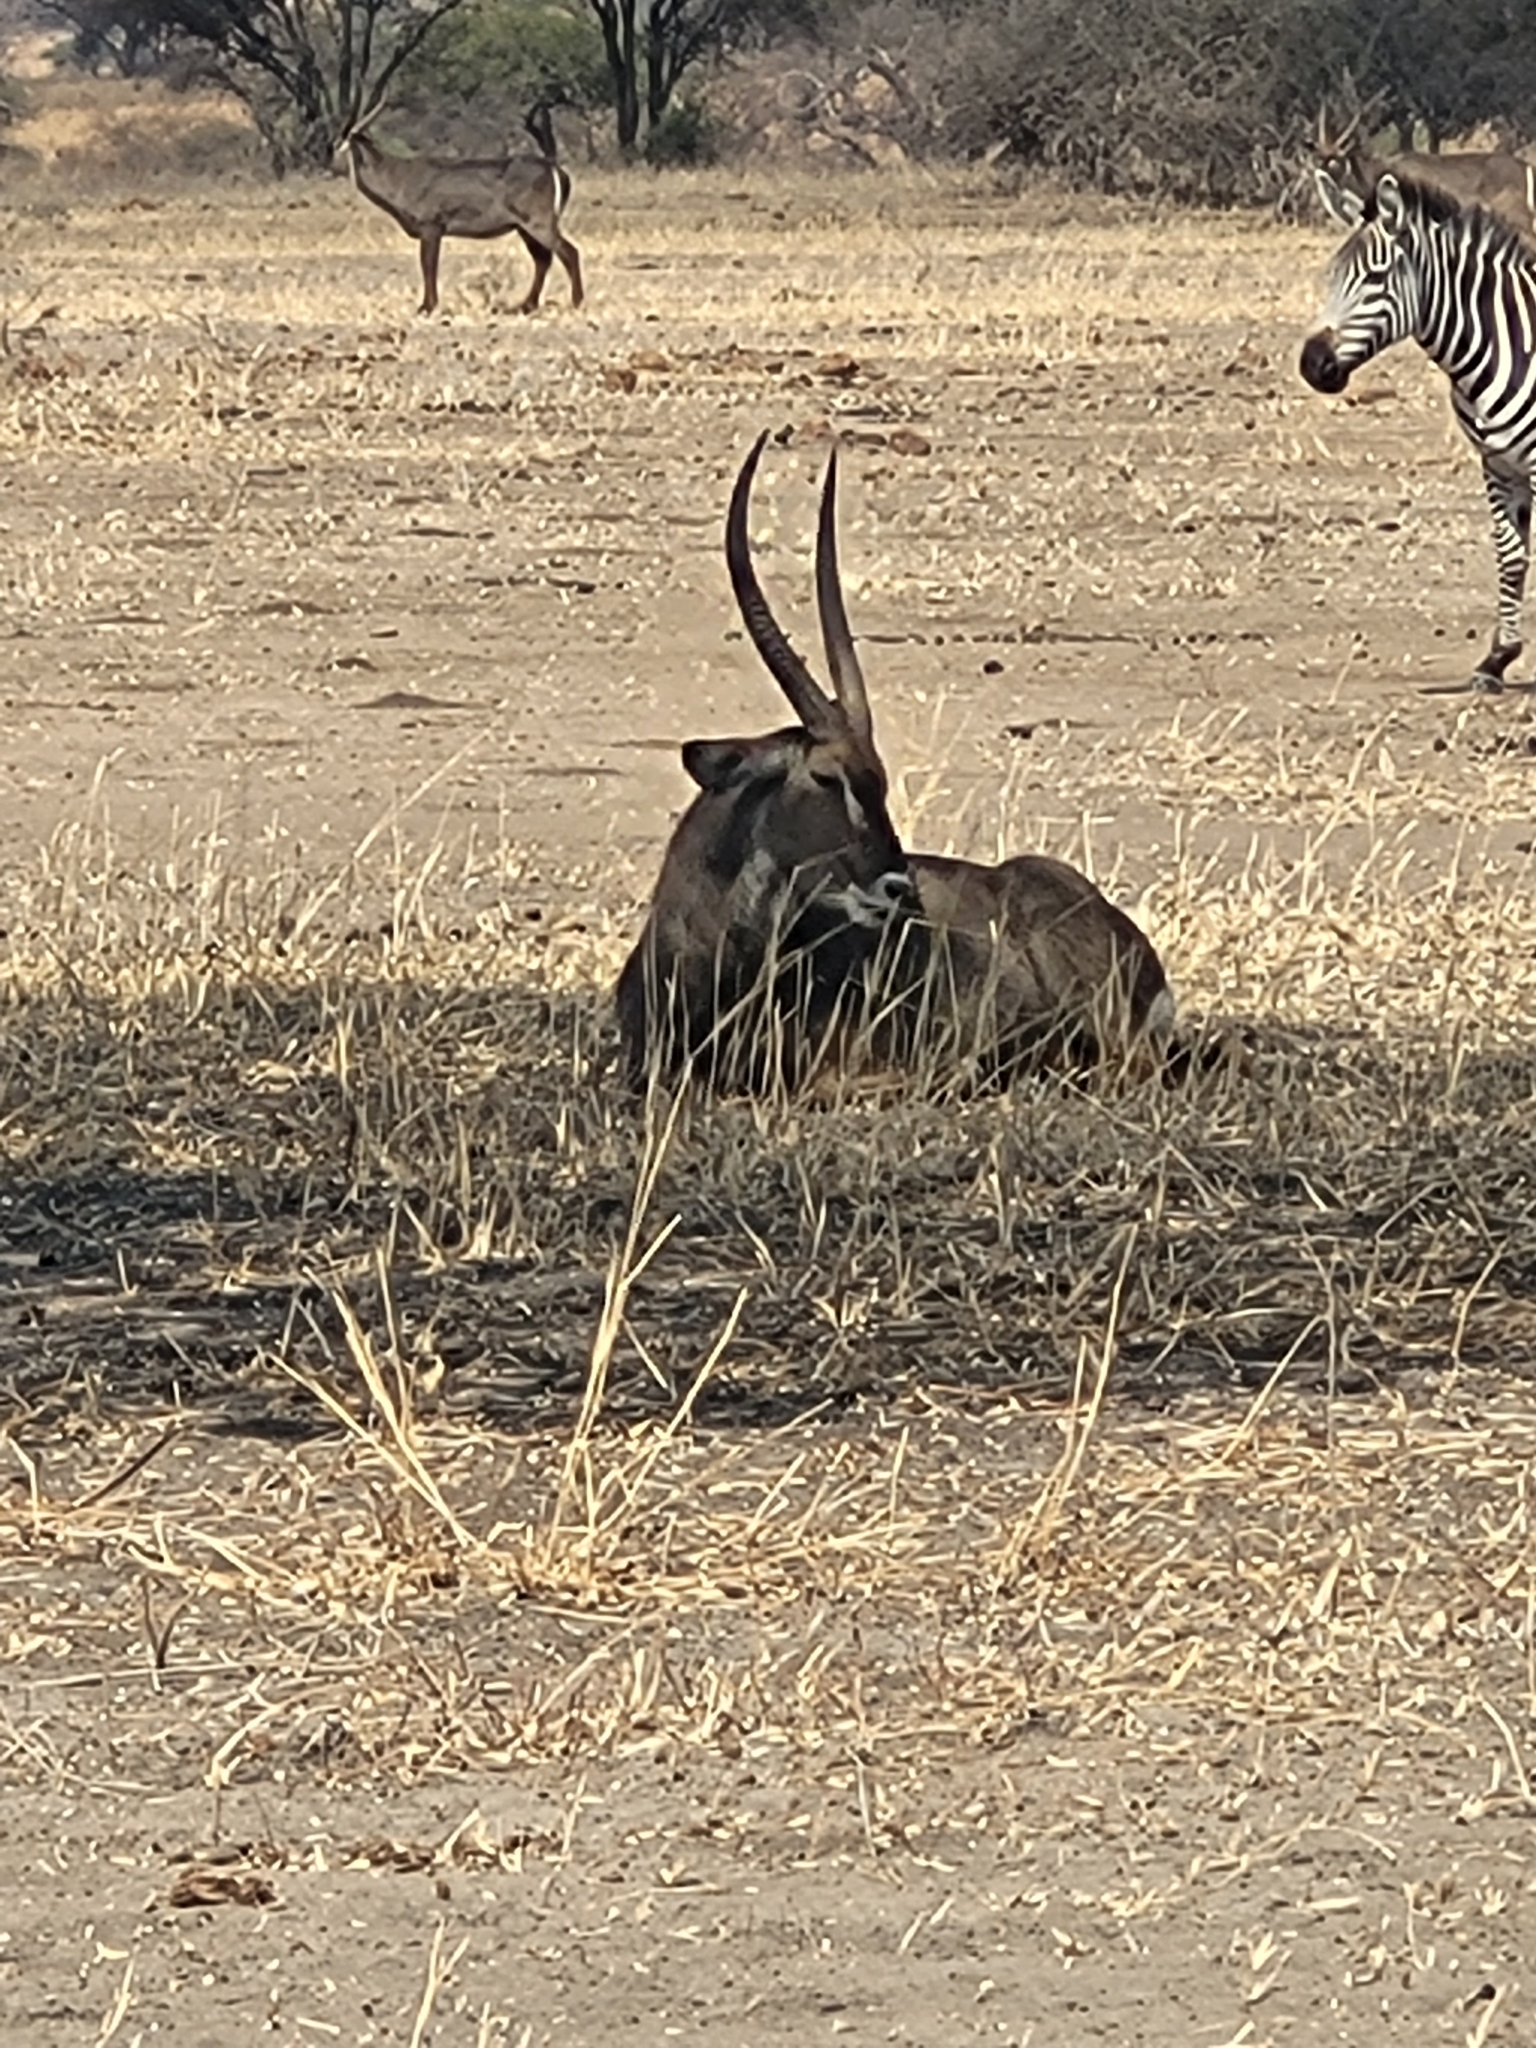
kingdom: Animalia
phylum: Chordata
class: Mammalia
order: Artiodactyla
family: Bovidae
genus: Kobus
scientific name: Kobus ellipsiprymnus
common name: Waterbuck
